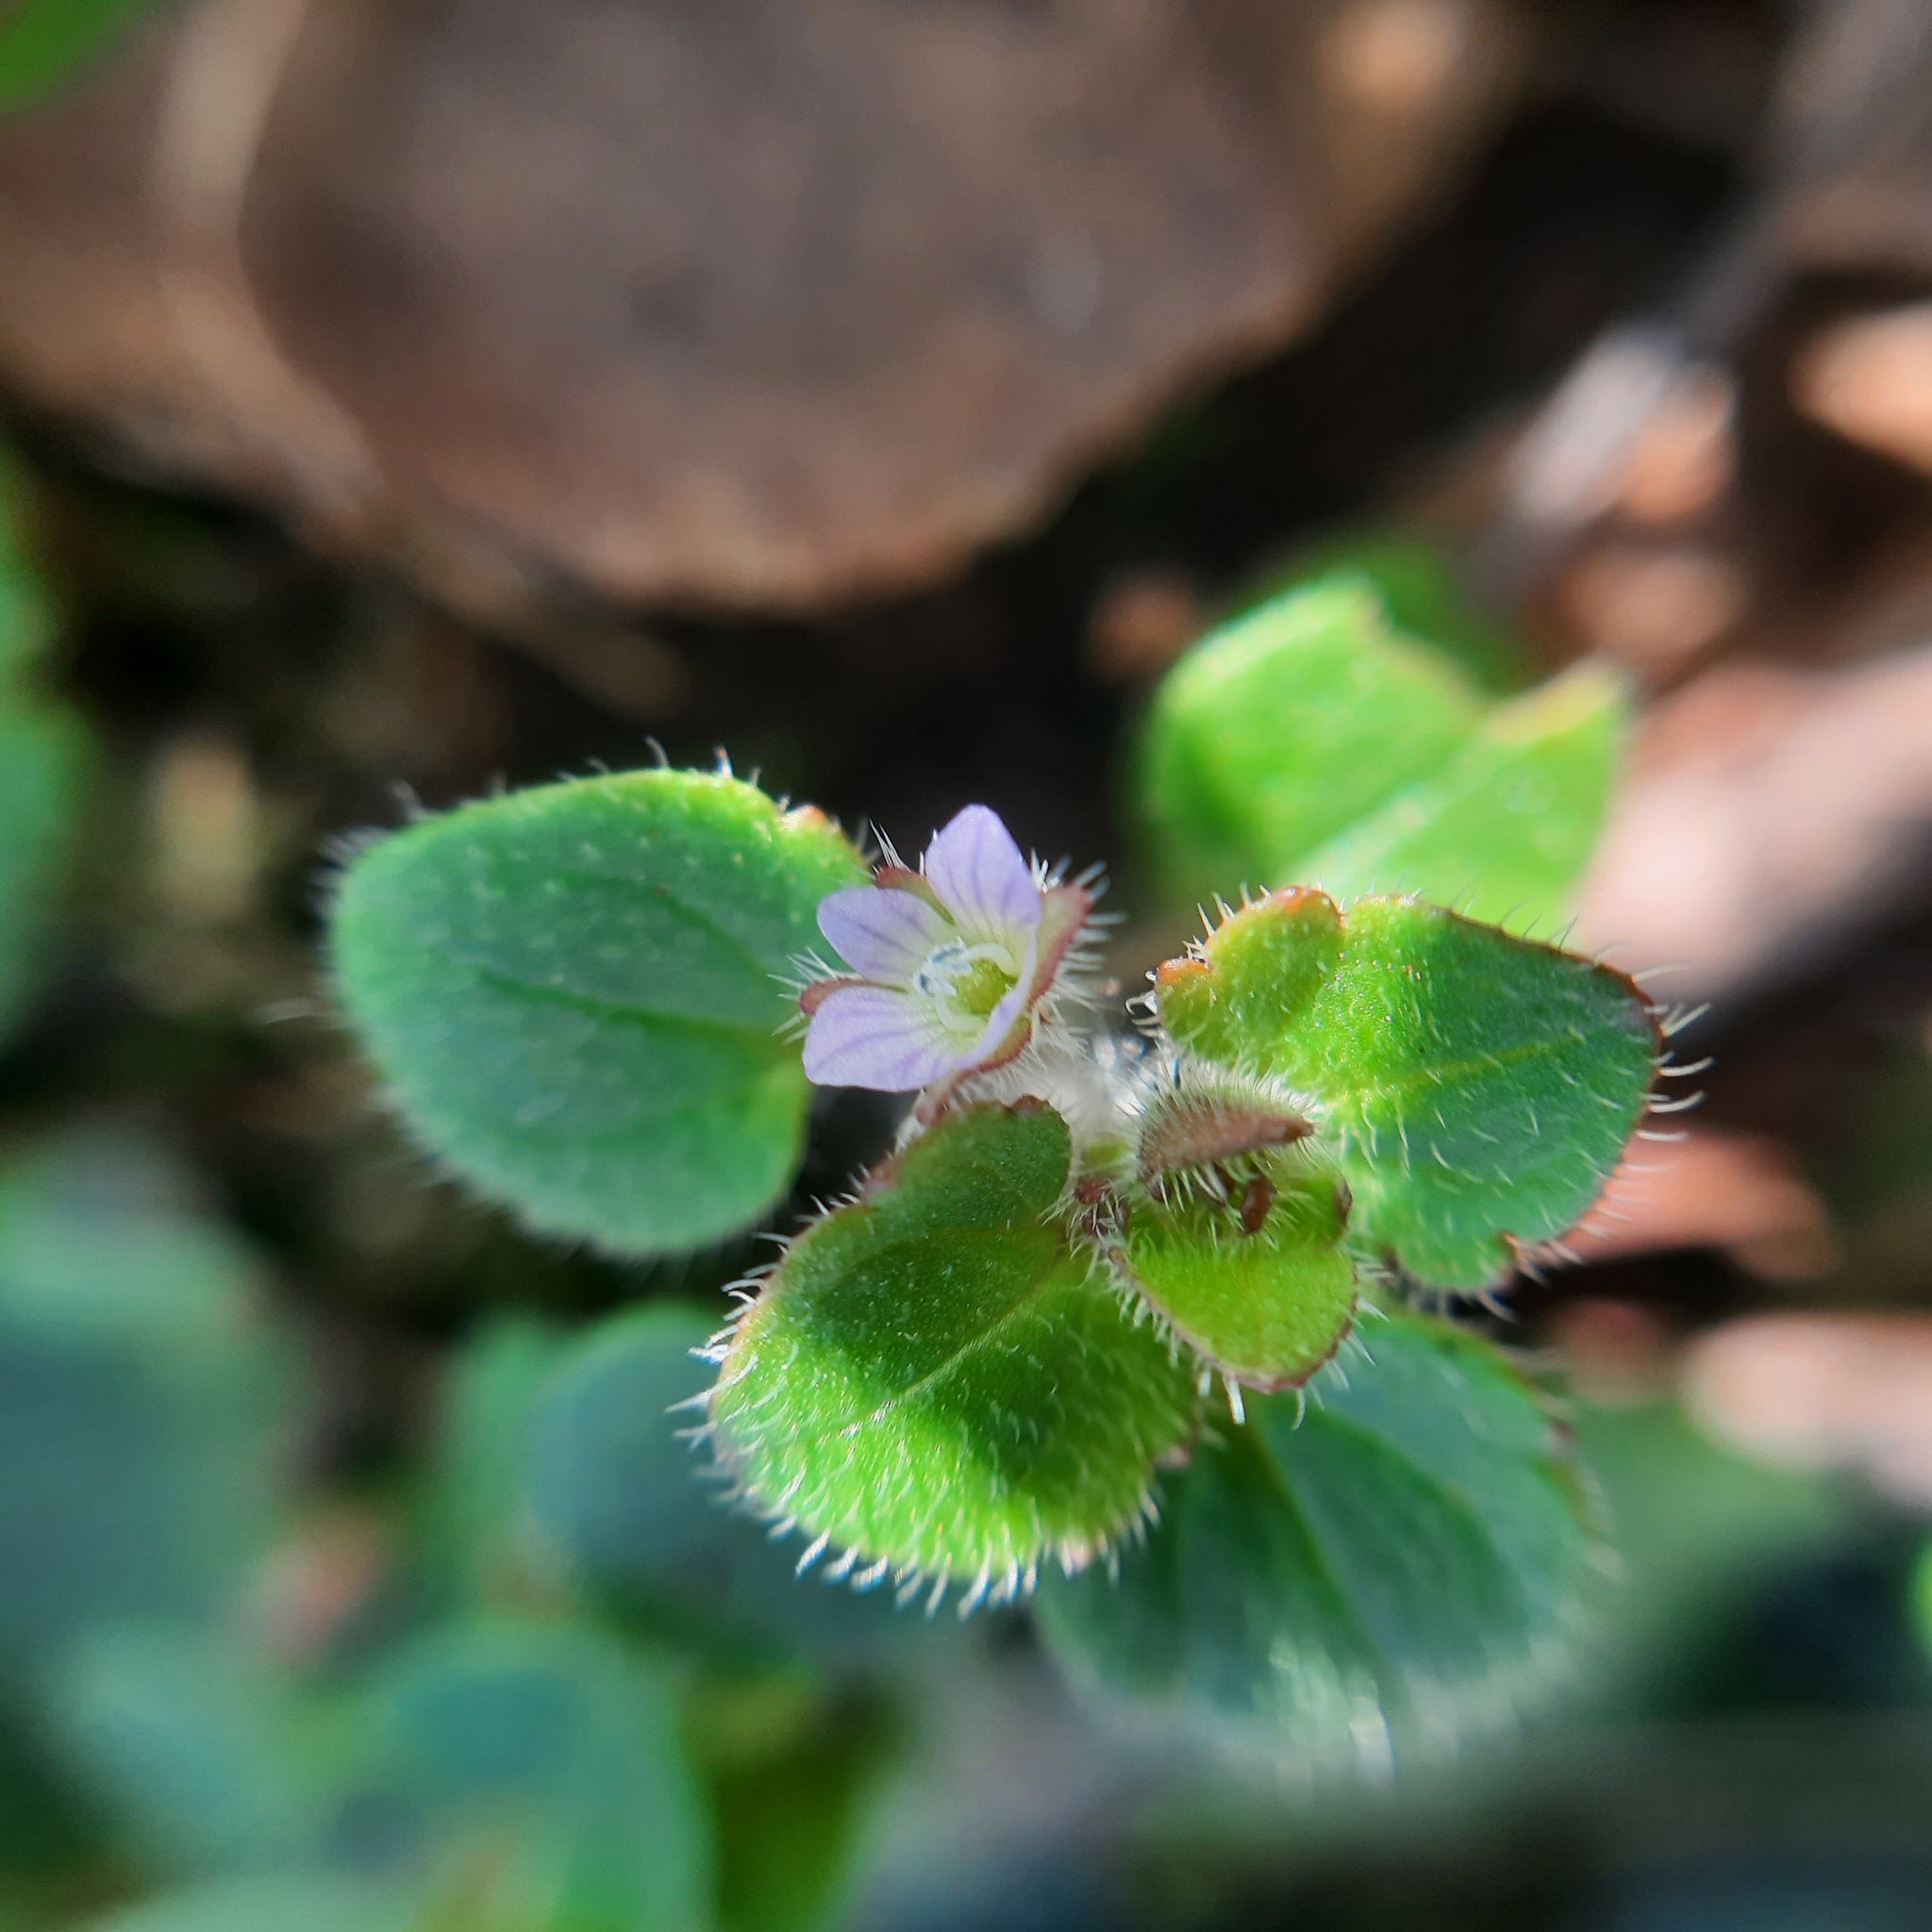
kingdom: Plantae
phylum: Tracheophyta
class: Magnoliopsida
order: Lamiales
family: Plantaginaceae
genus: Veronica
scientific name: Veronica sublobata
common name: False ivy-leaved speedwell
